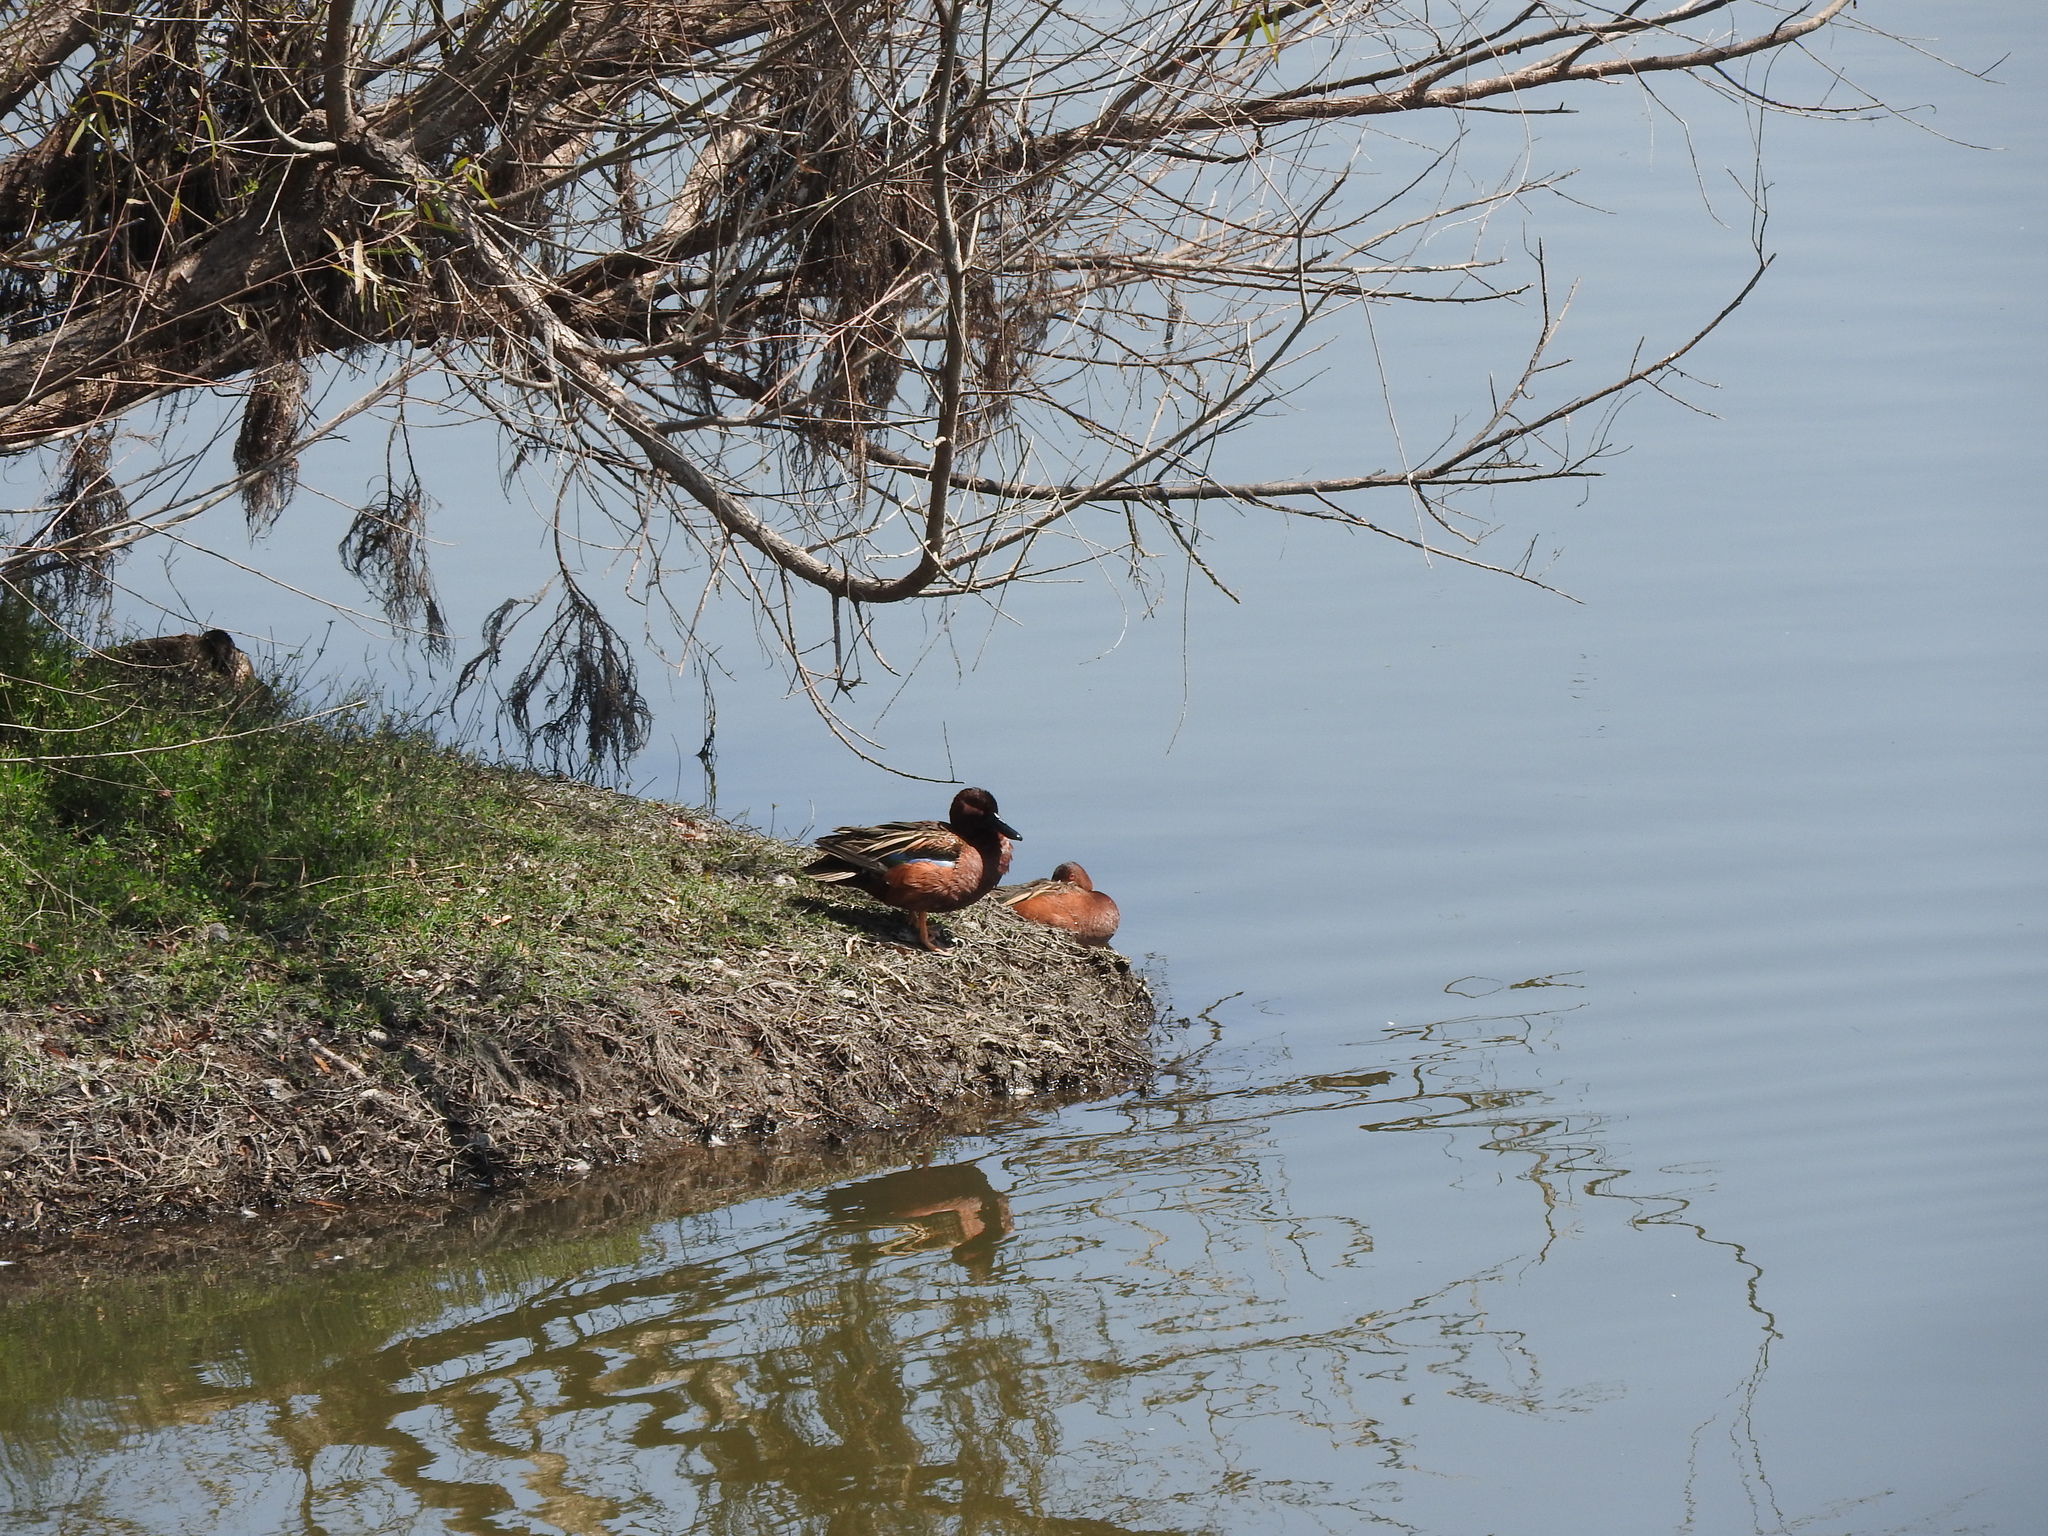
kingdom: Animalia
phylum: Chordata
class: Aves
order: Anseriformes
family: Anatidae
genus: Spatula
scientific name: Spatula cyanoptera
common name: Cinnamon teal
